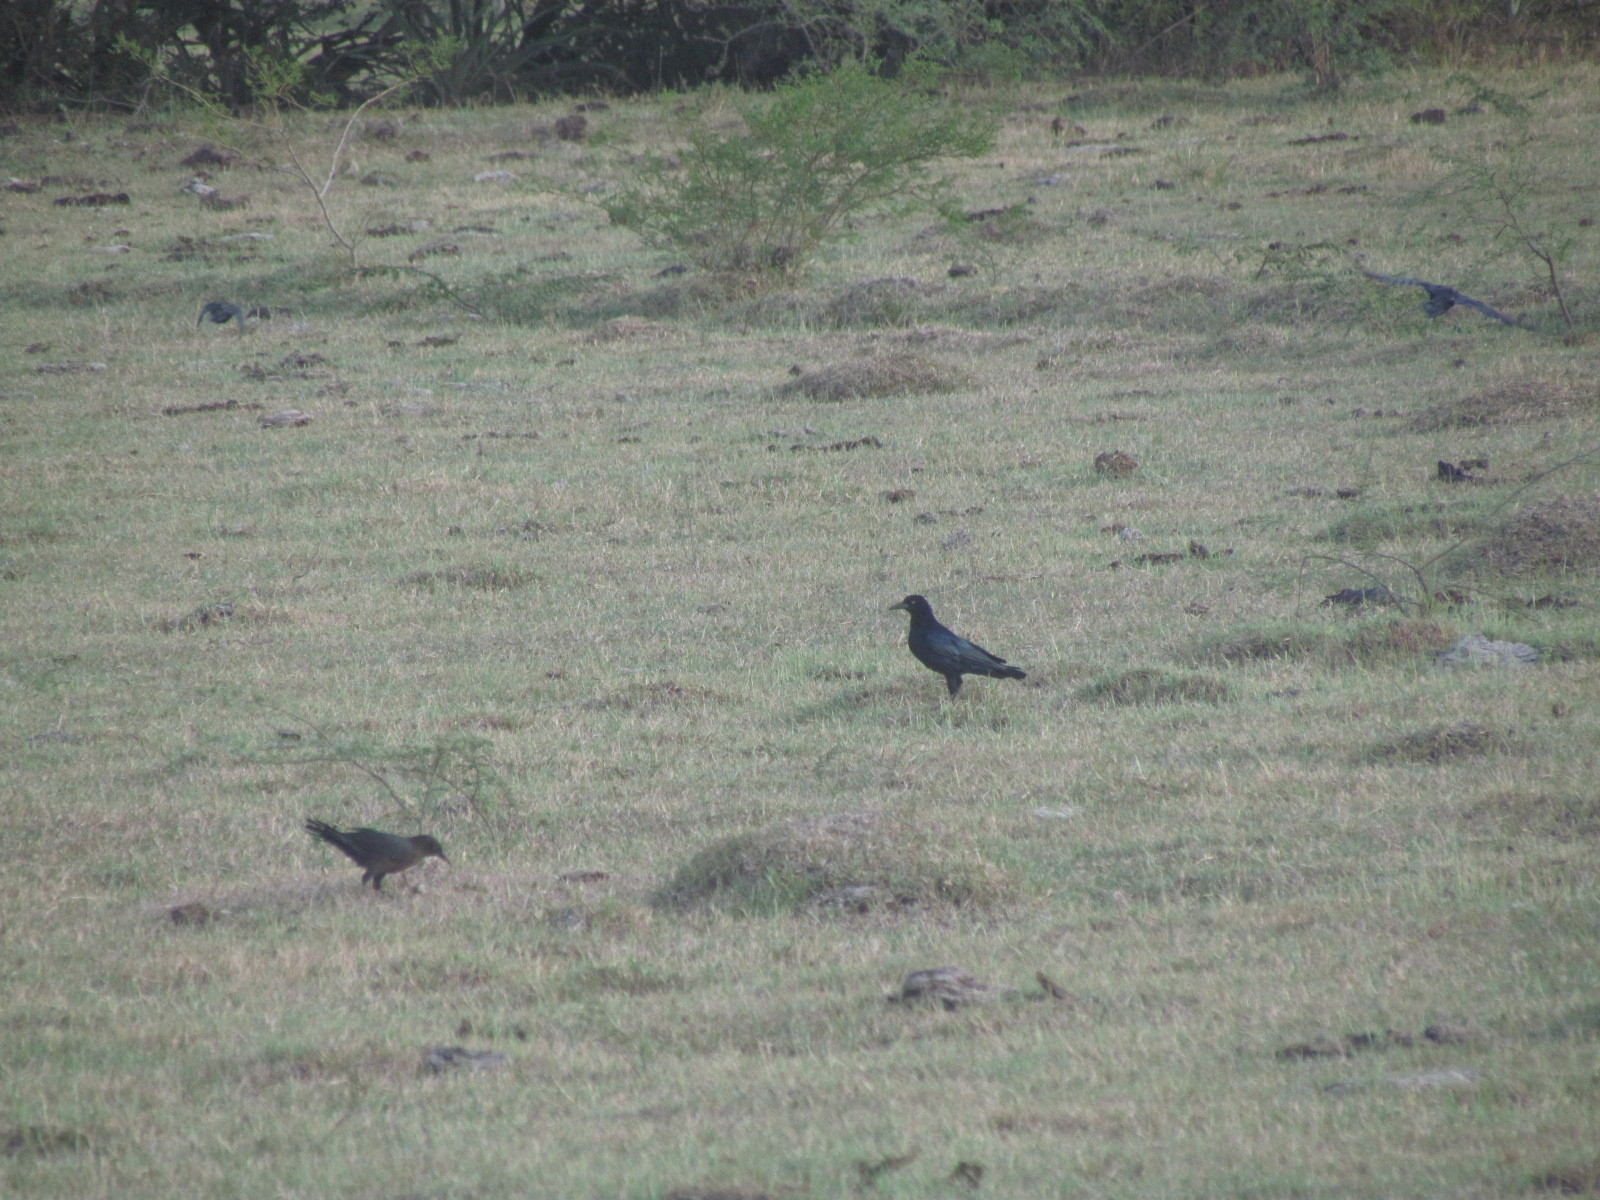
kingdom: Animalia
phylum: Chordata
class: Aves
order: Passeriformes
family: Icteridae
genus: Quiscalus
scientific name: Quiscalus mexicanus
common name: Great-tailed grackle
